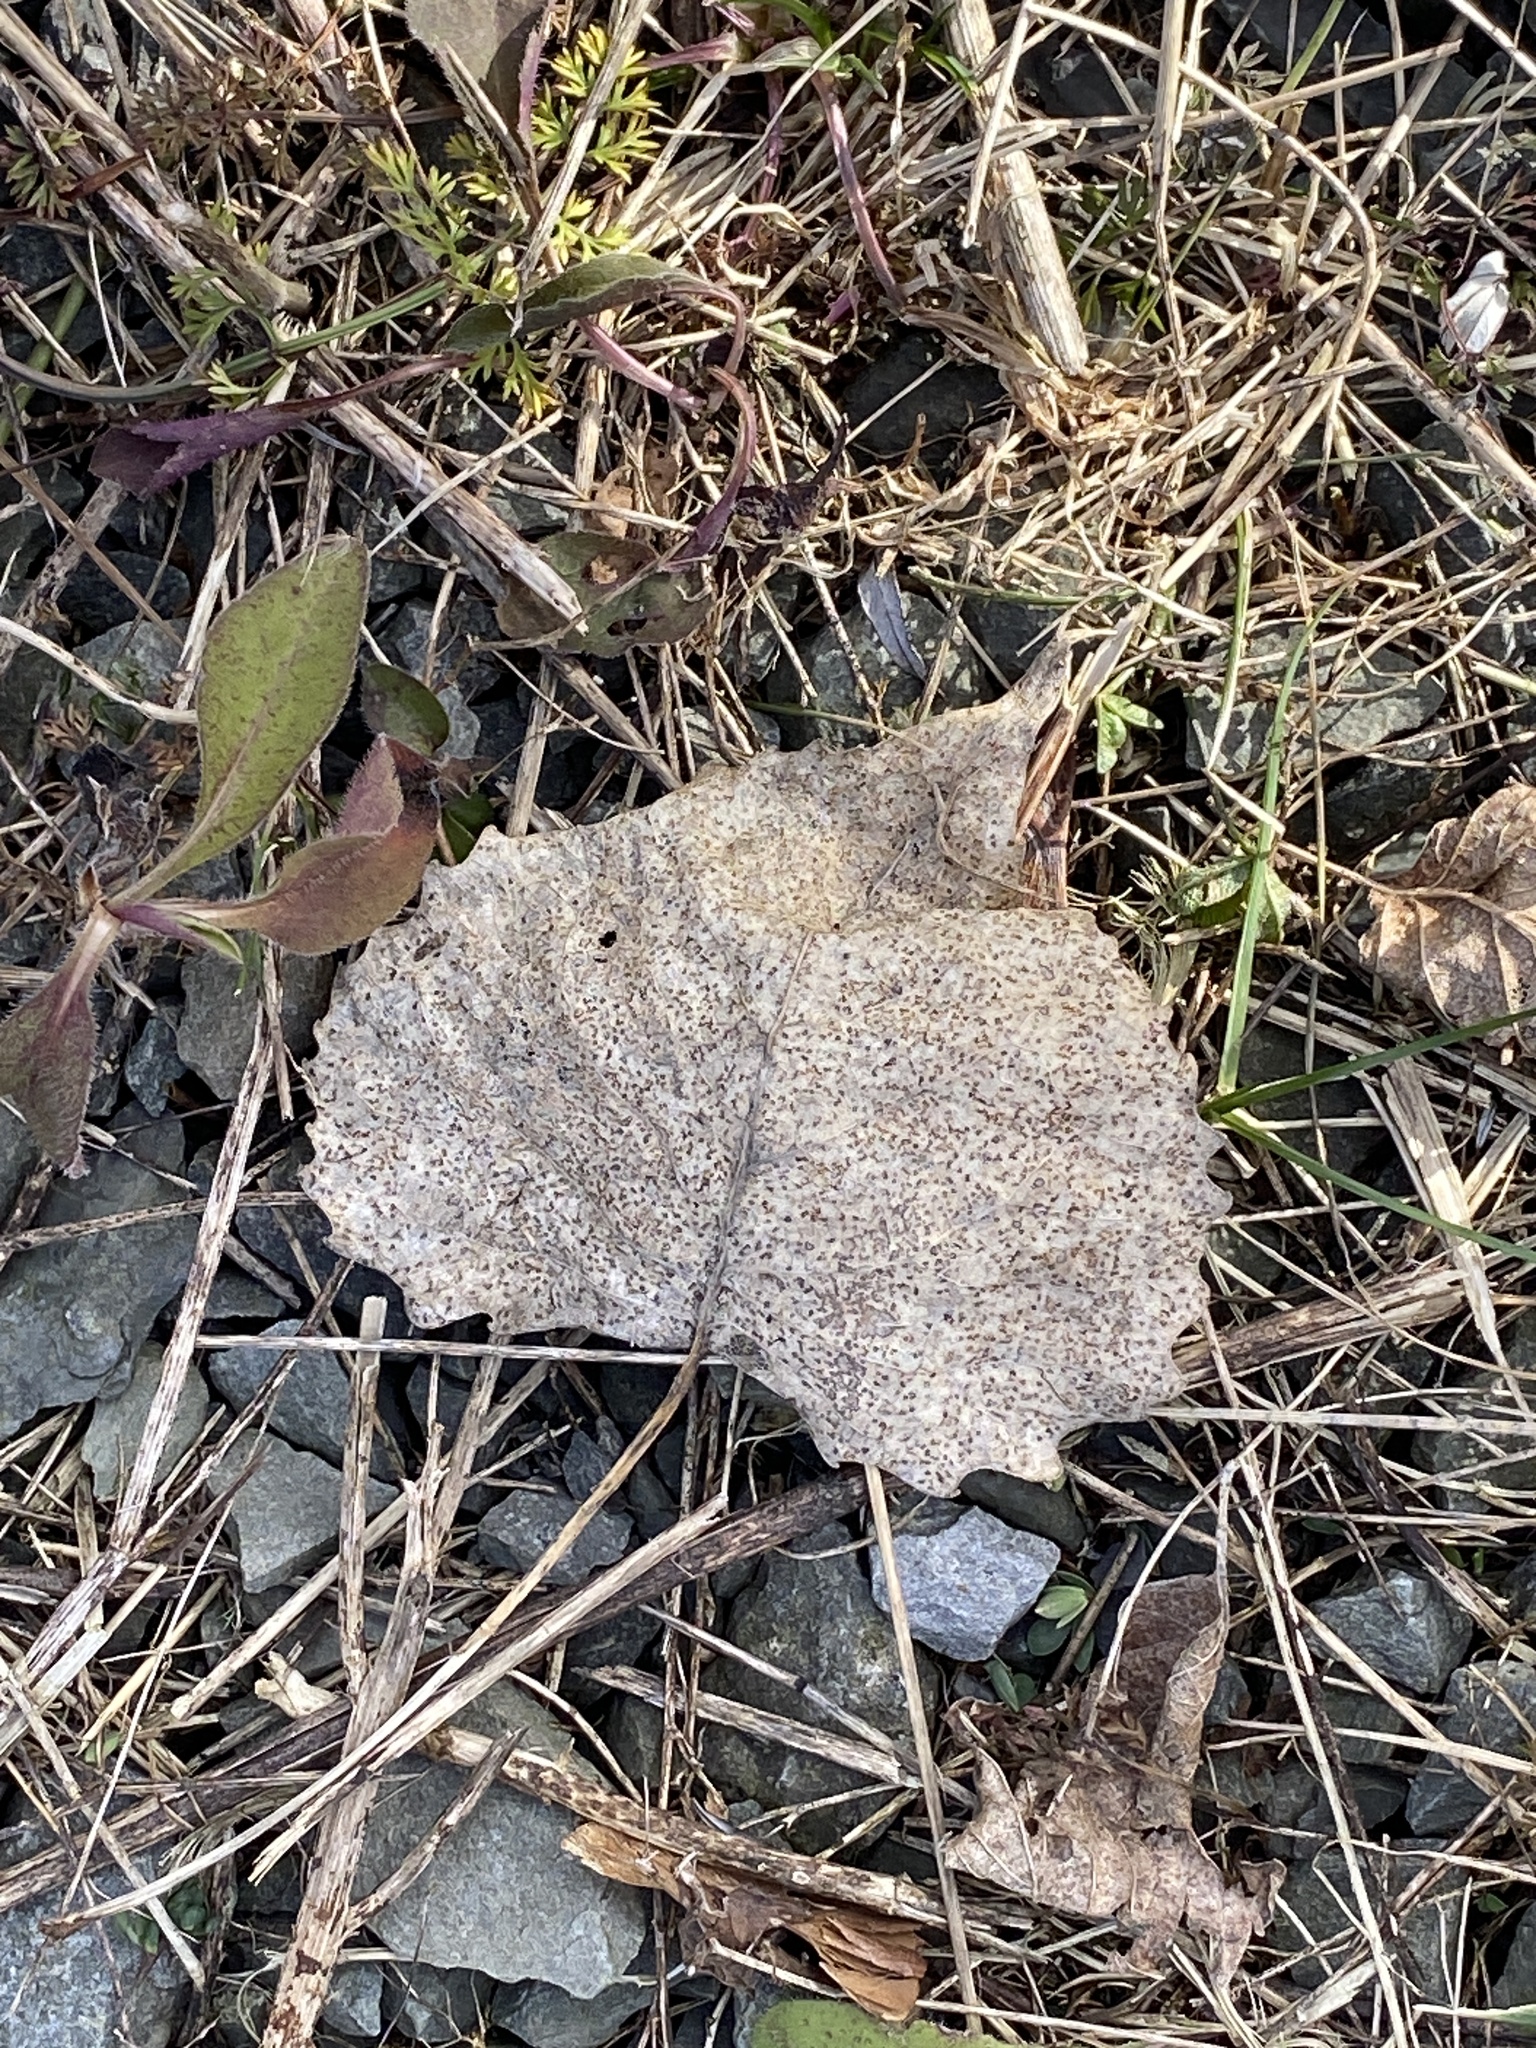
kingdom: Plantae
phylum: Tracheophyta
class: Magnoliopsida
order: Malpighiales
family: Salicaceae
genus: Populus
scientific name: Populus deltoides
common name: Eastern cottonwood
